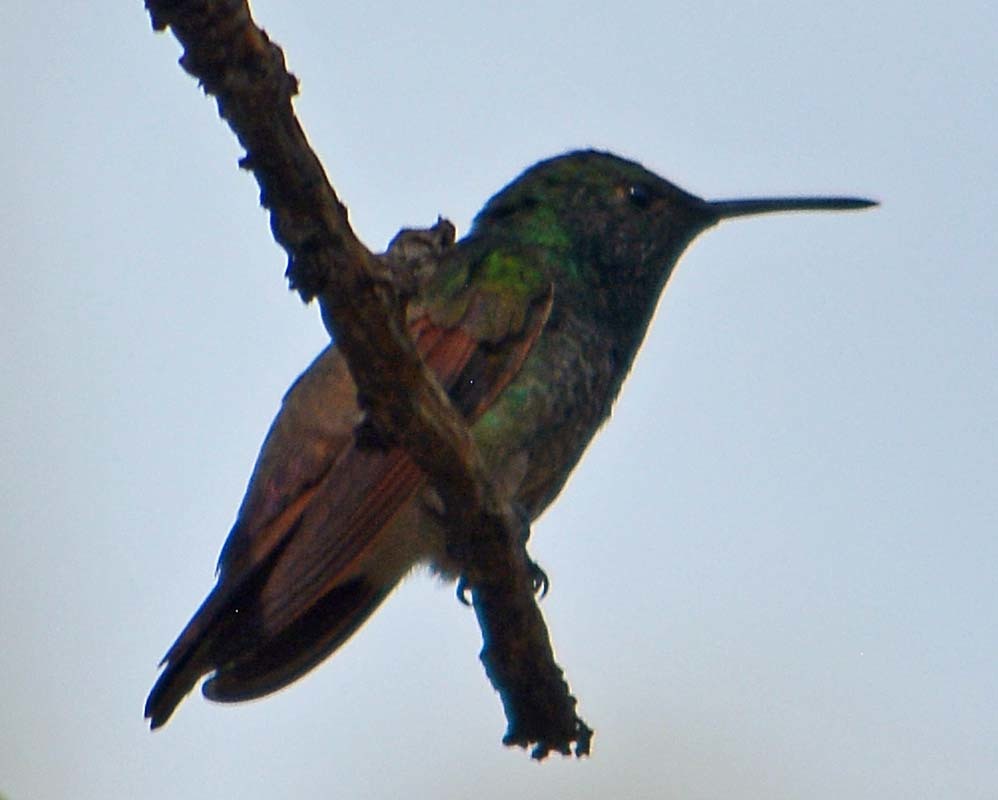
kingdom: Animalia
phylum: Chordata
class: Aves
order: Apodiformes
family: Trochilidae
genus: Saucerottia
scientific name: Saucerottia beryllina
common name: Berylline hummingbird
